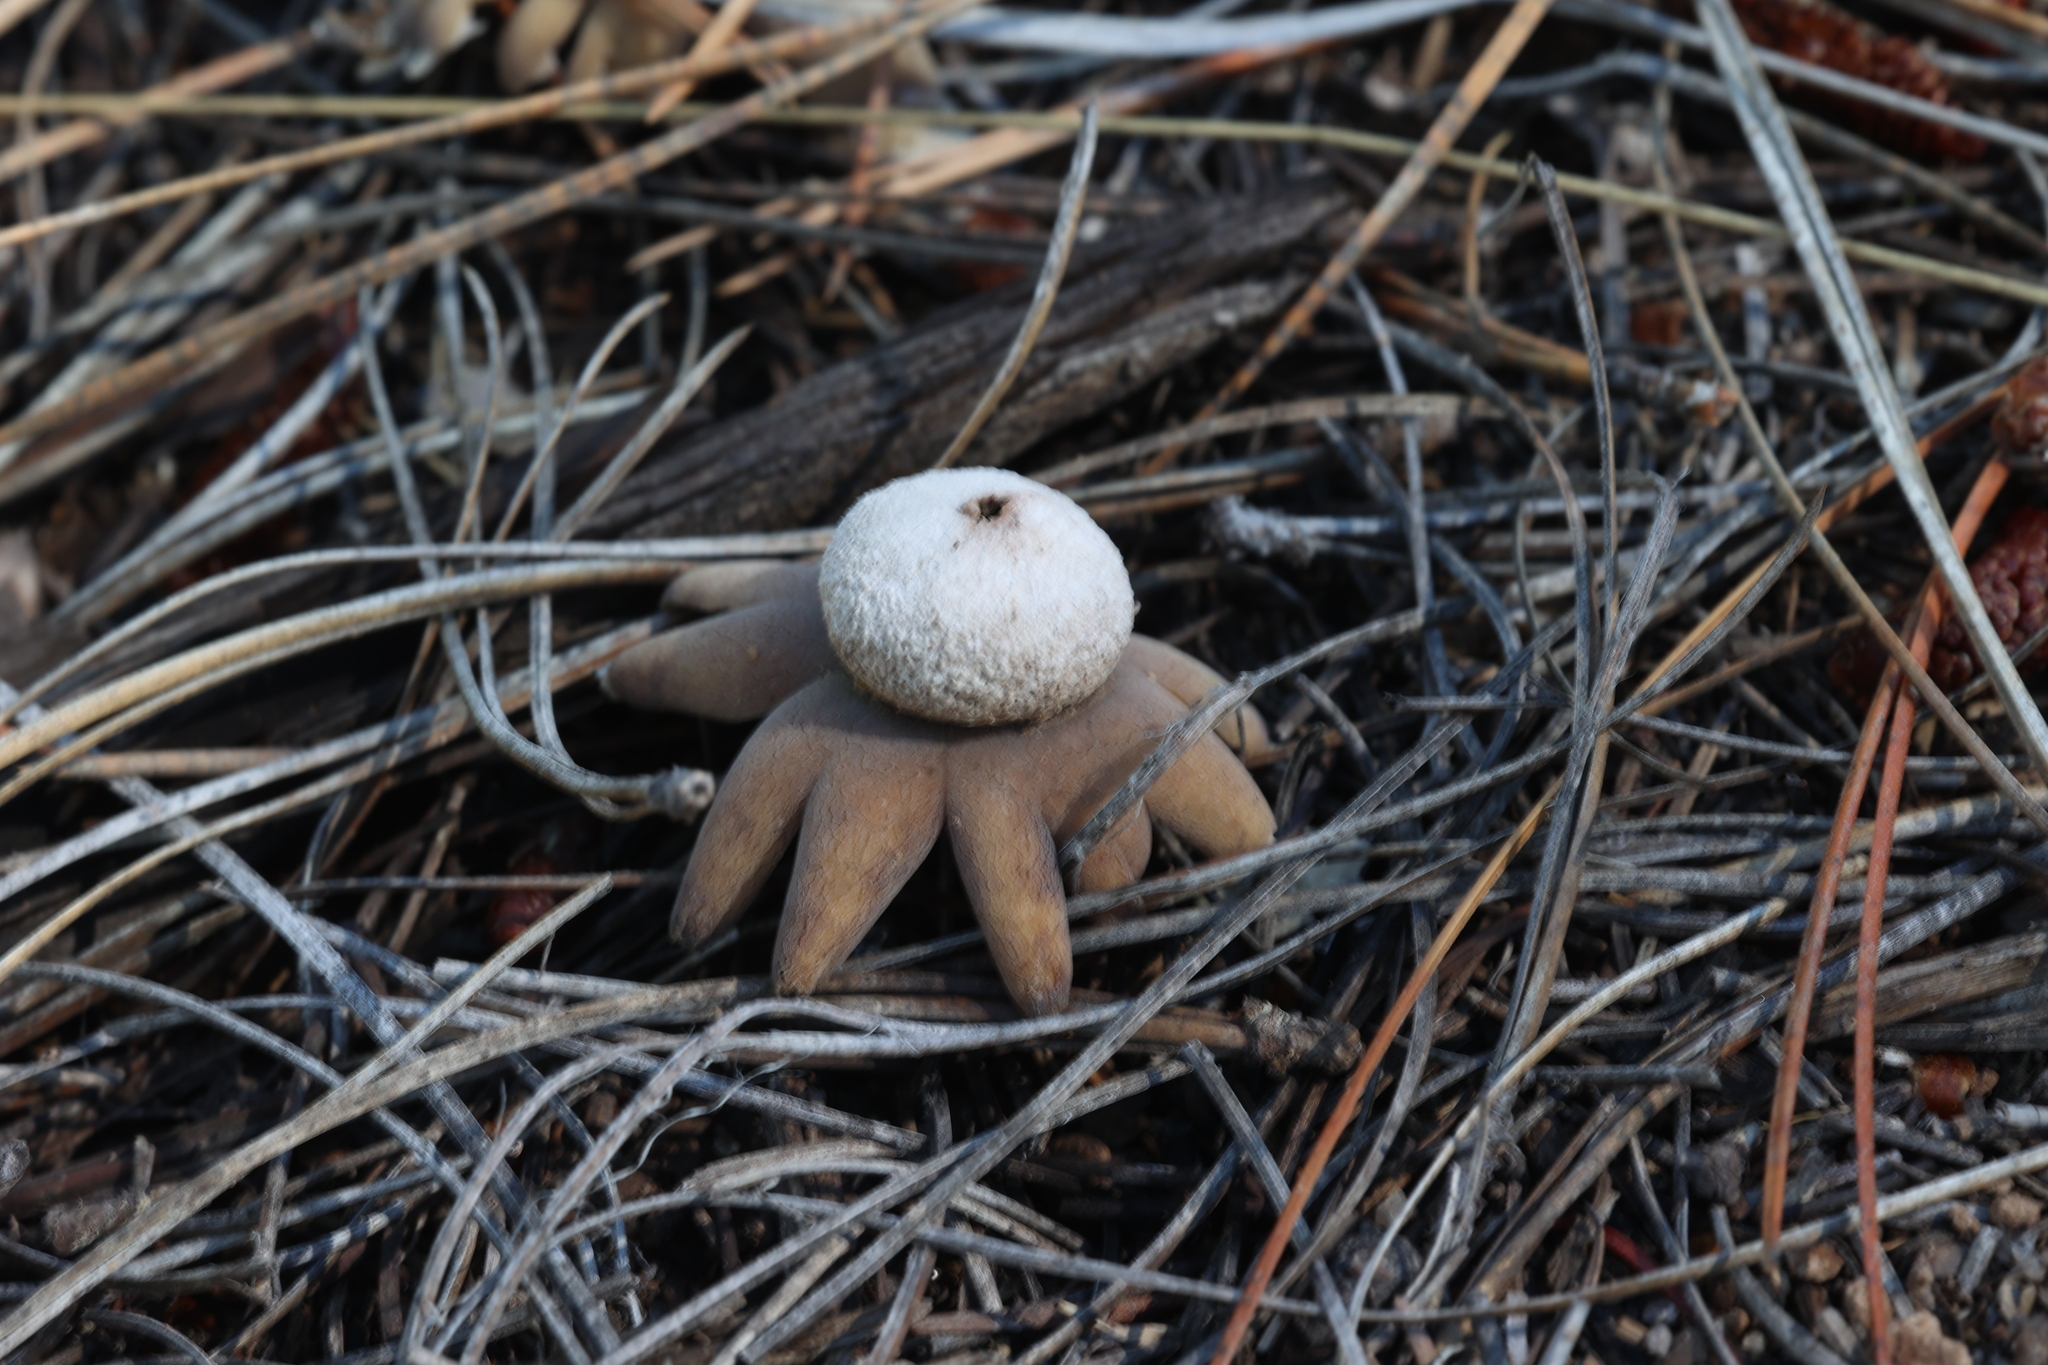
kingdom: Fungi
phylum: Basidiomycota
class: Agaricomycetes
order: Boletales
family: Diplocystidiaceae
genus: Astraeus
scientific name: Astraeus hygrometricus
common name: Barometer earthstar
